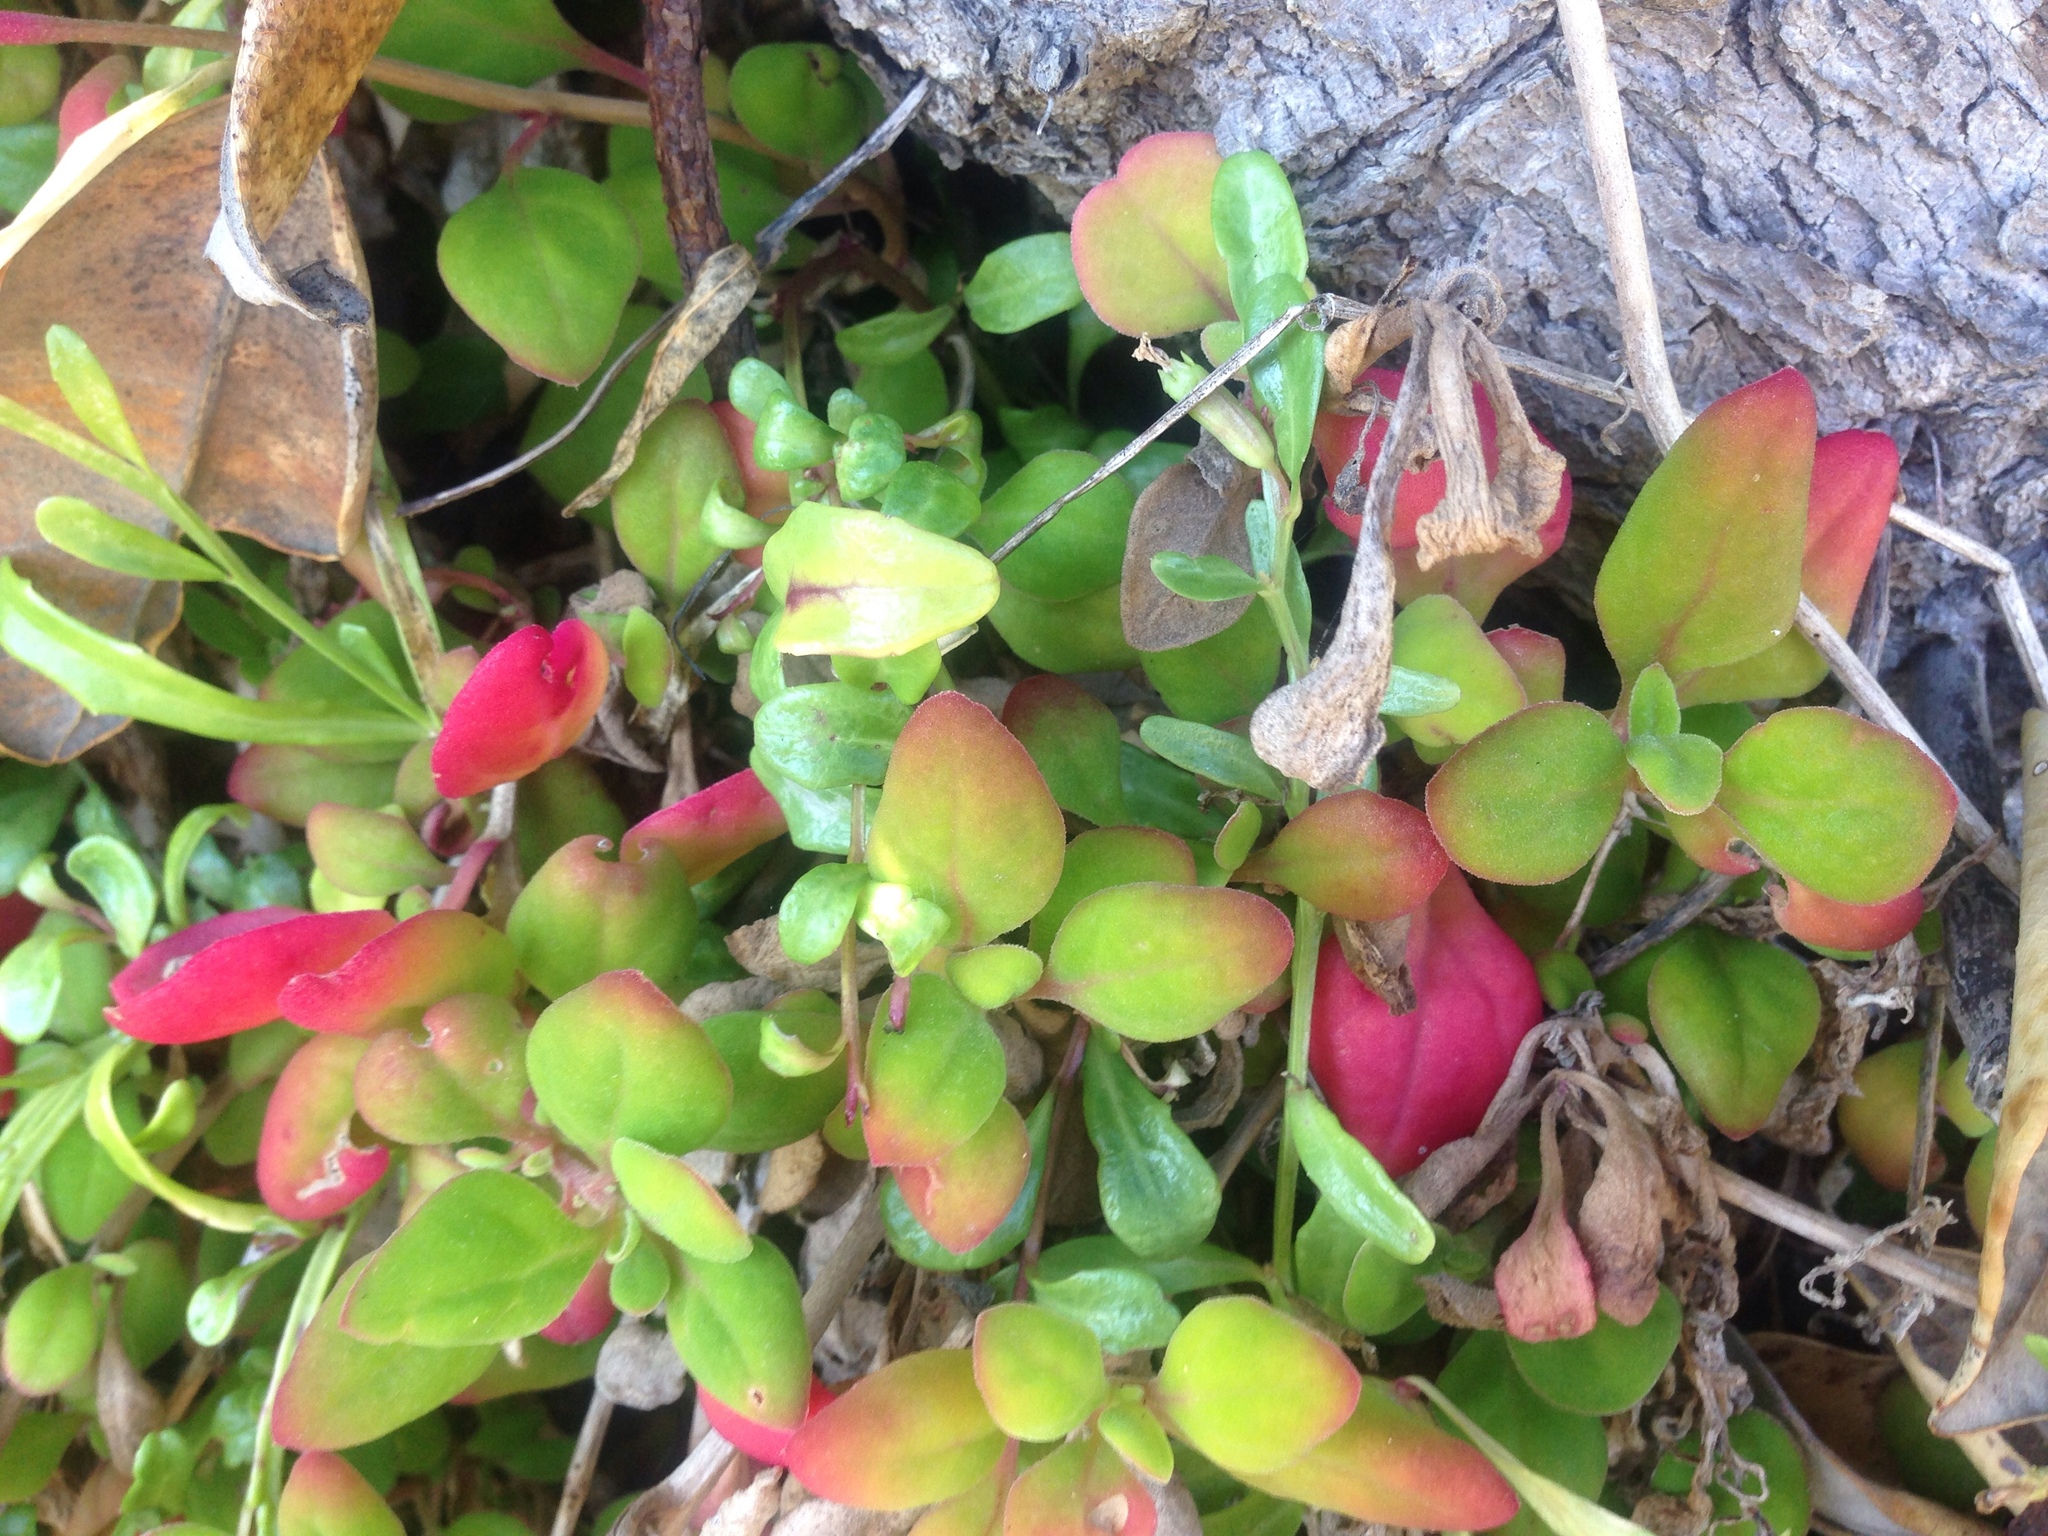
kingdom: Plantae
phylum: Tracheophyta
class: Magnoliopsida
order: Caryophyllales
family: Aizoaceae
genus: Tetragonia
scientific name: Tetragonia implexicoma
